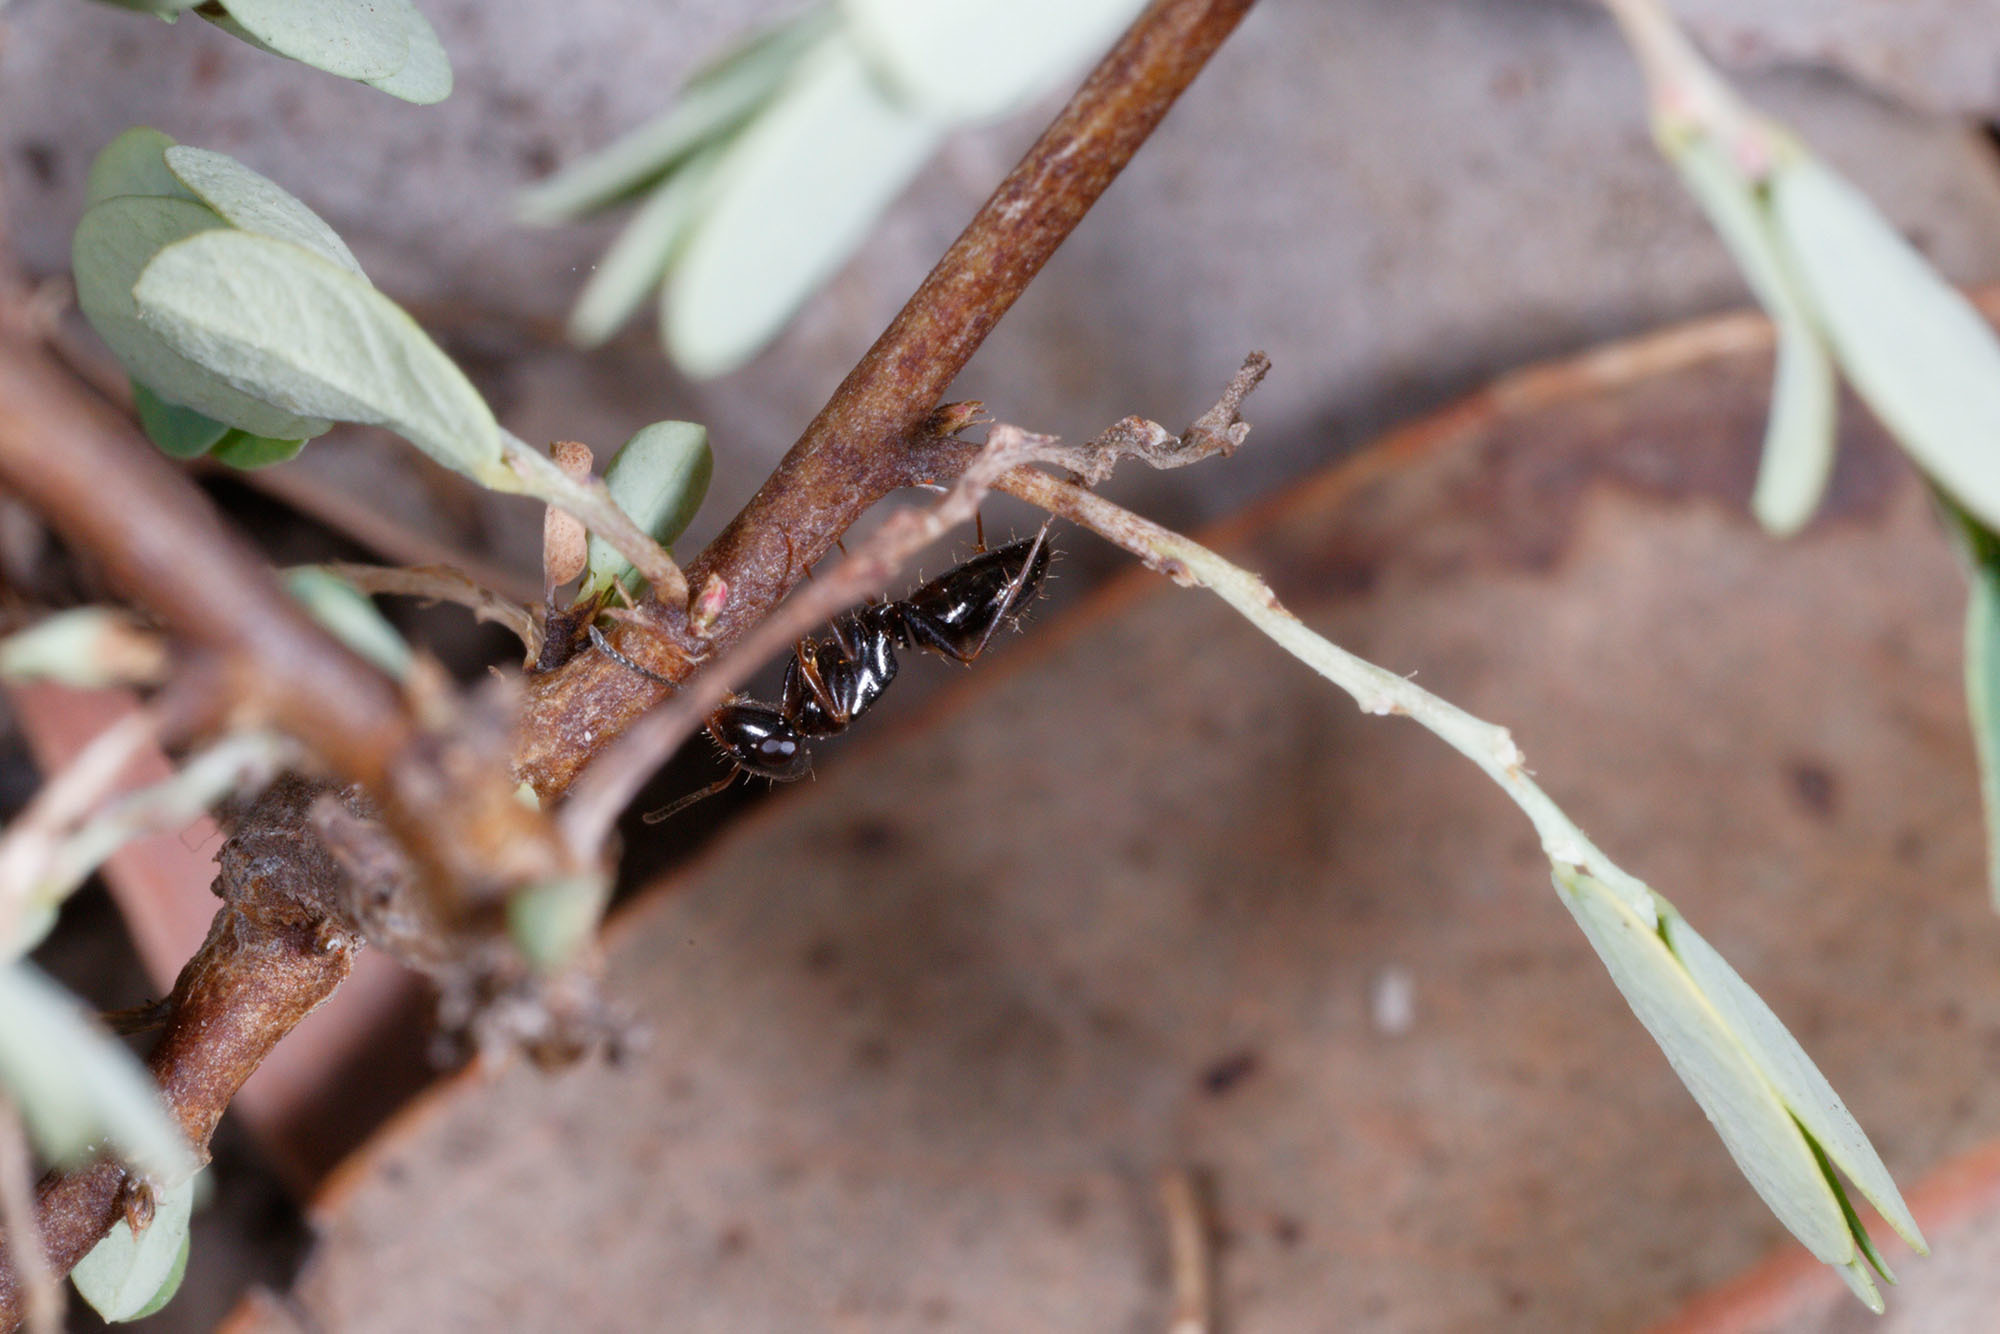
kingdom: Animalia
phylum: Arthropoda
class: Insecta
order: Hymenoptera
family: Formicidae
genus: Opisthopsis
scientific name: Opisthopsis respiciens
